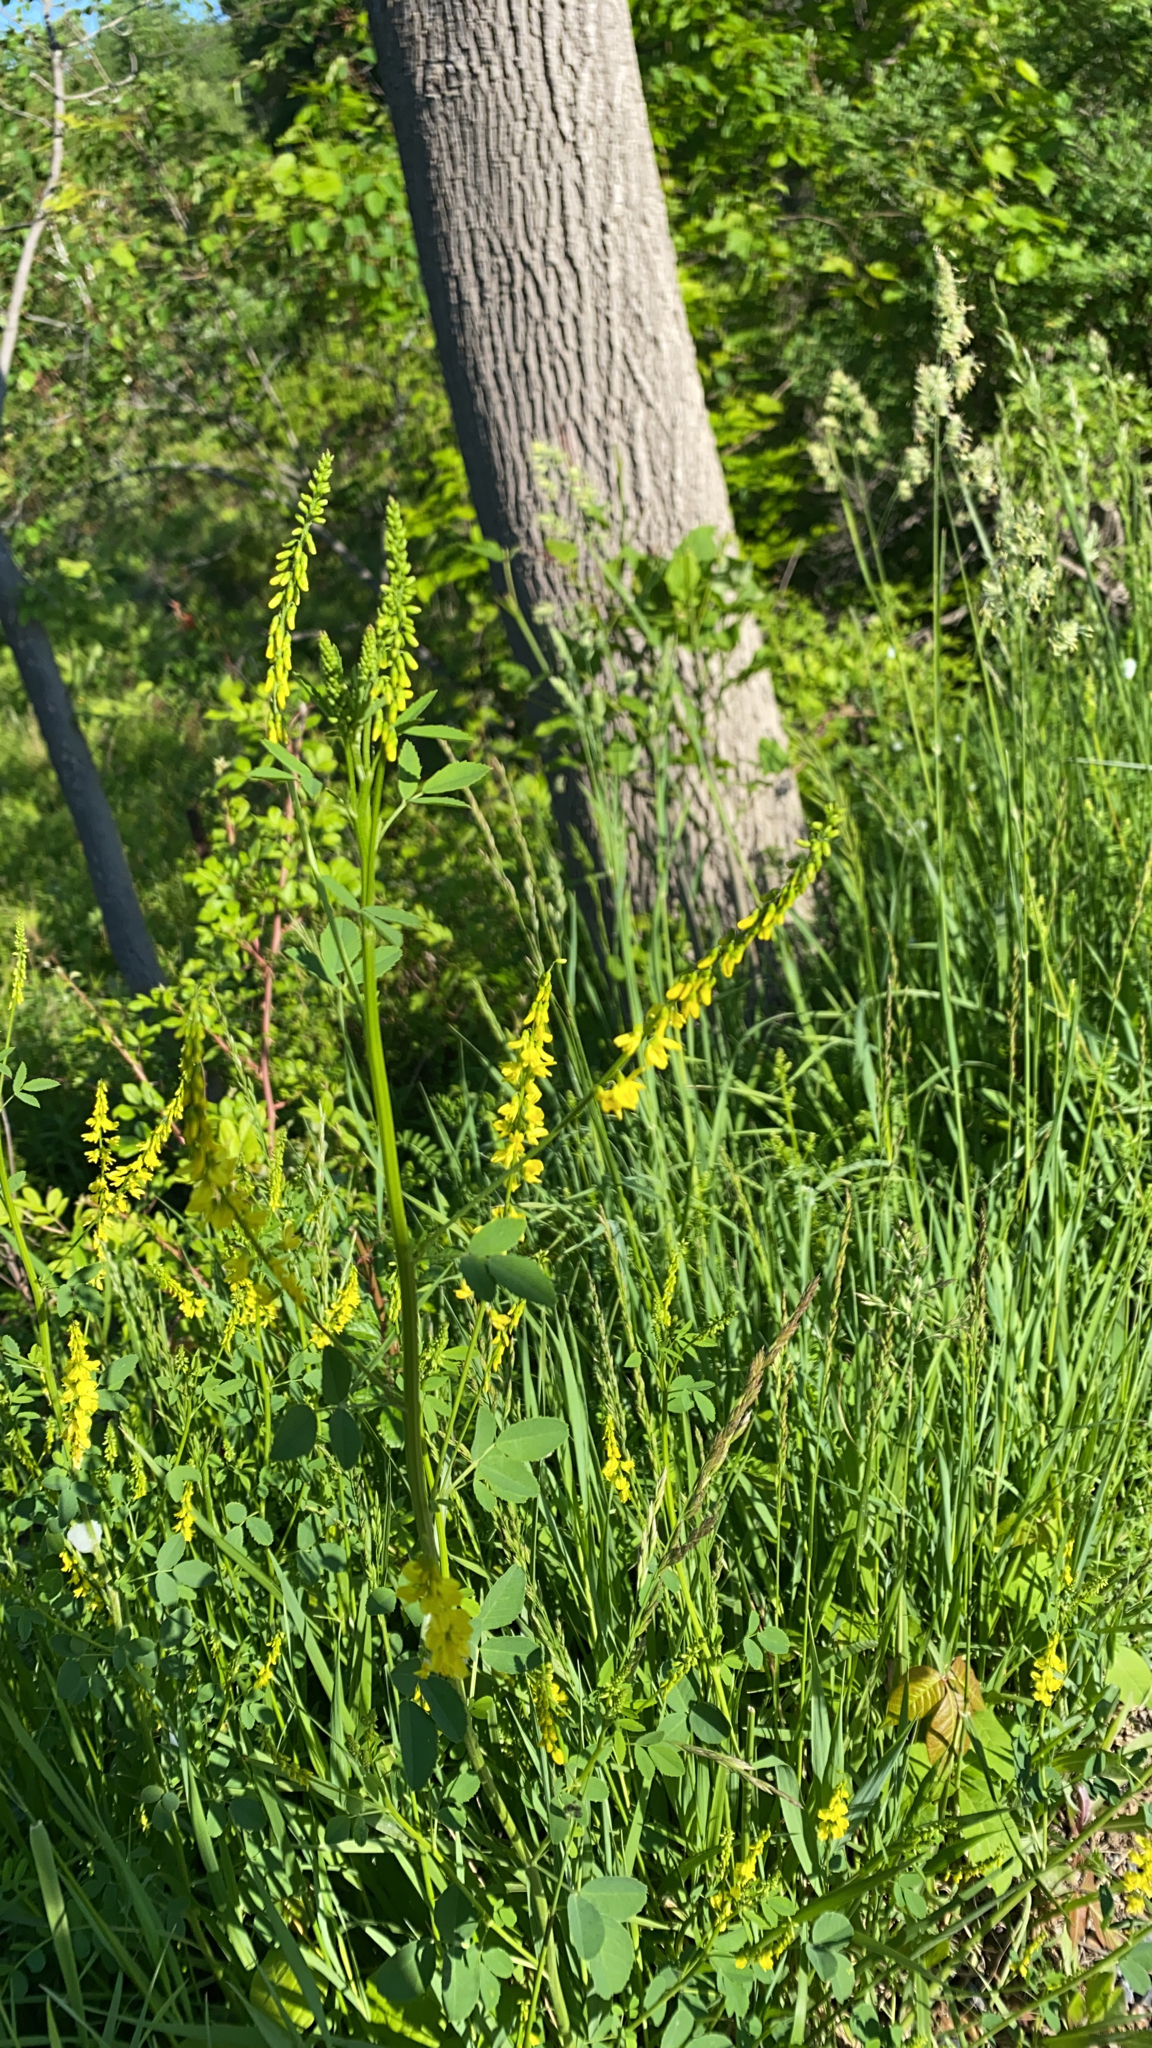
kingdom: Plantae
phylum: Tracheophyta
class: Magnoliopsida
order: Fabales
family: Fabaceae
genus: Melilotus
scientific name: Melilotus officinalis
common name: Sweetclover
